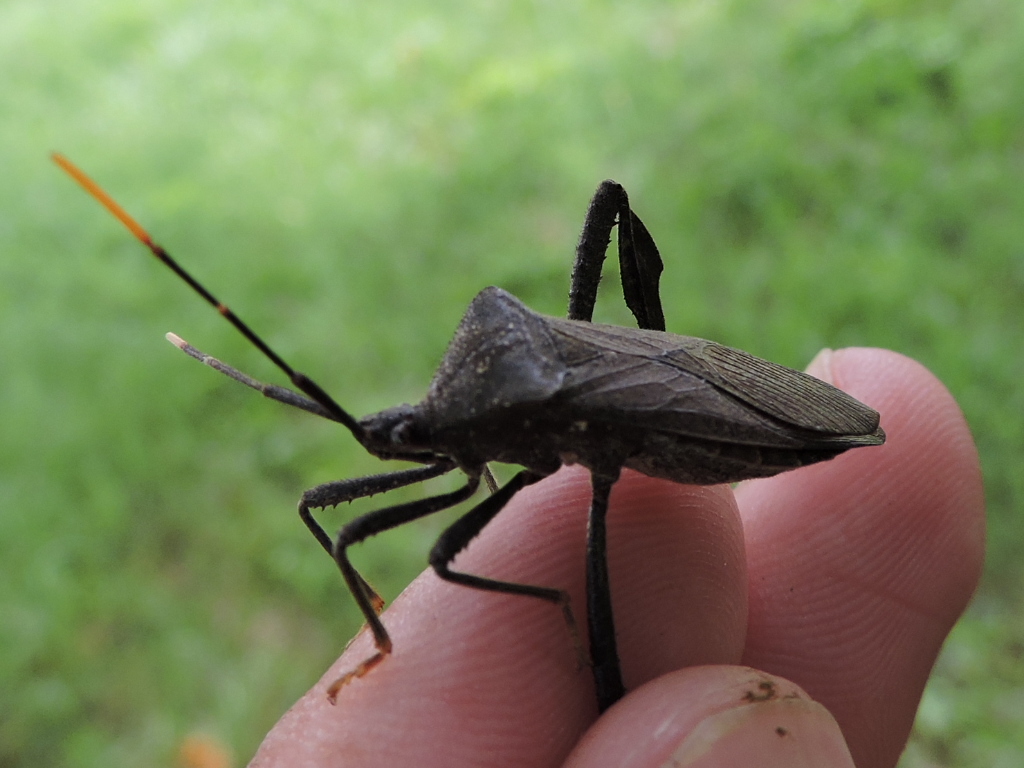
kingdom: Animalia
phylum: Arthropoda
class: Insecta
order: Hemiptera
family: Coreidae
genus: Acanthocephala
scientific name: Acanthocephala terminalis
